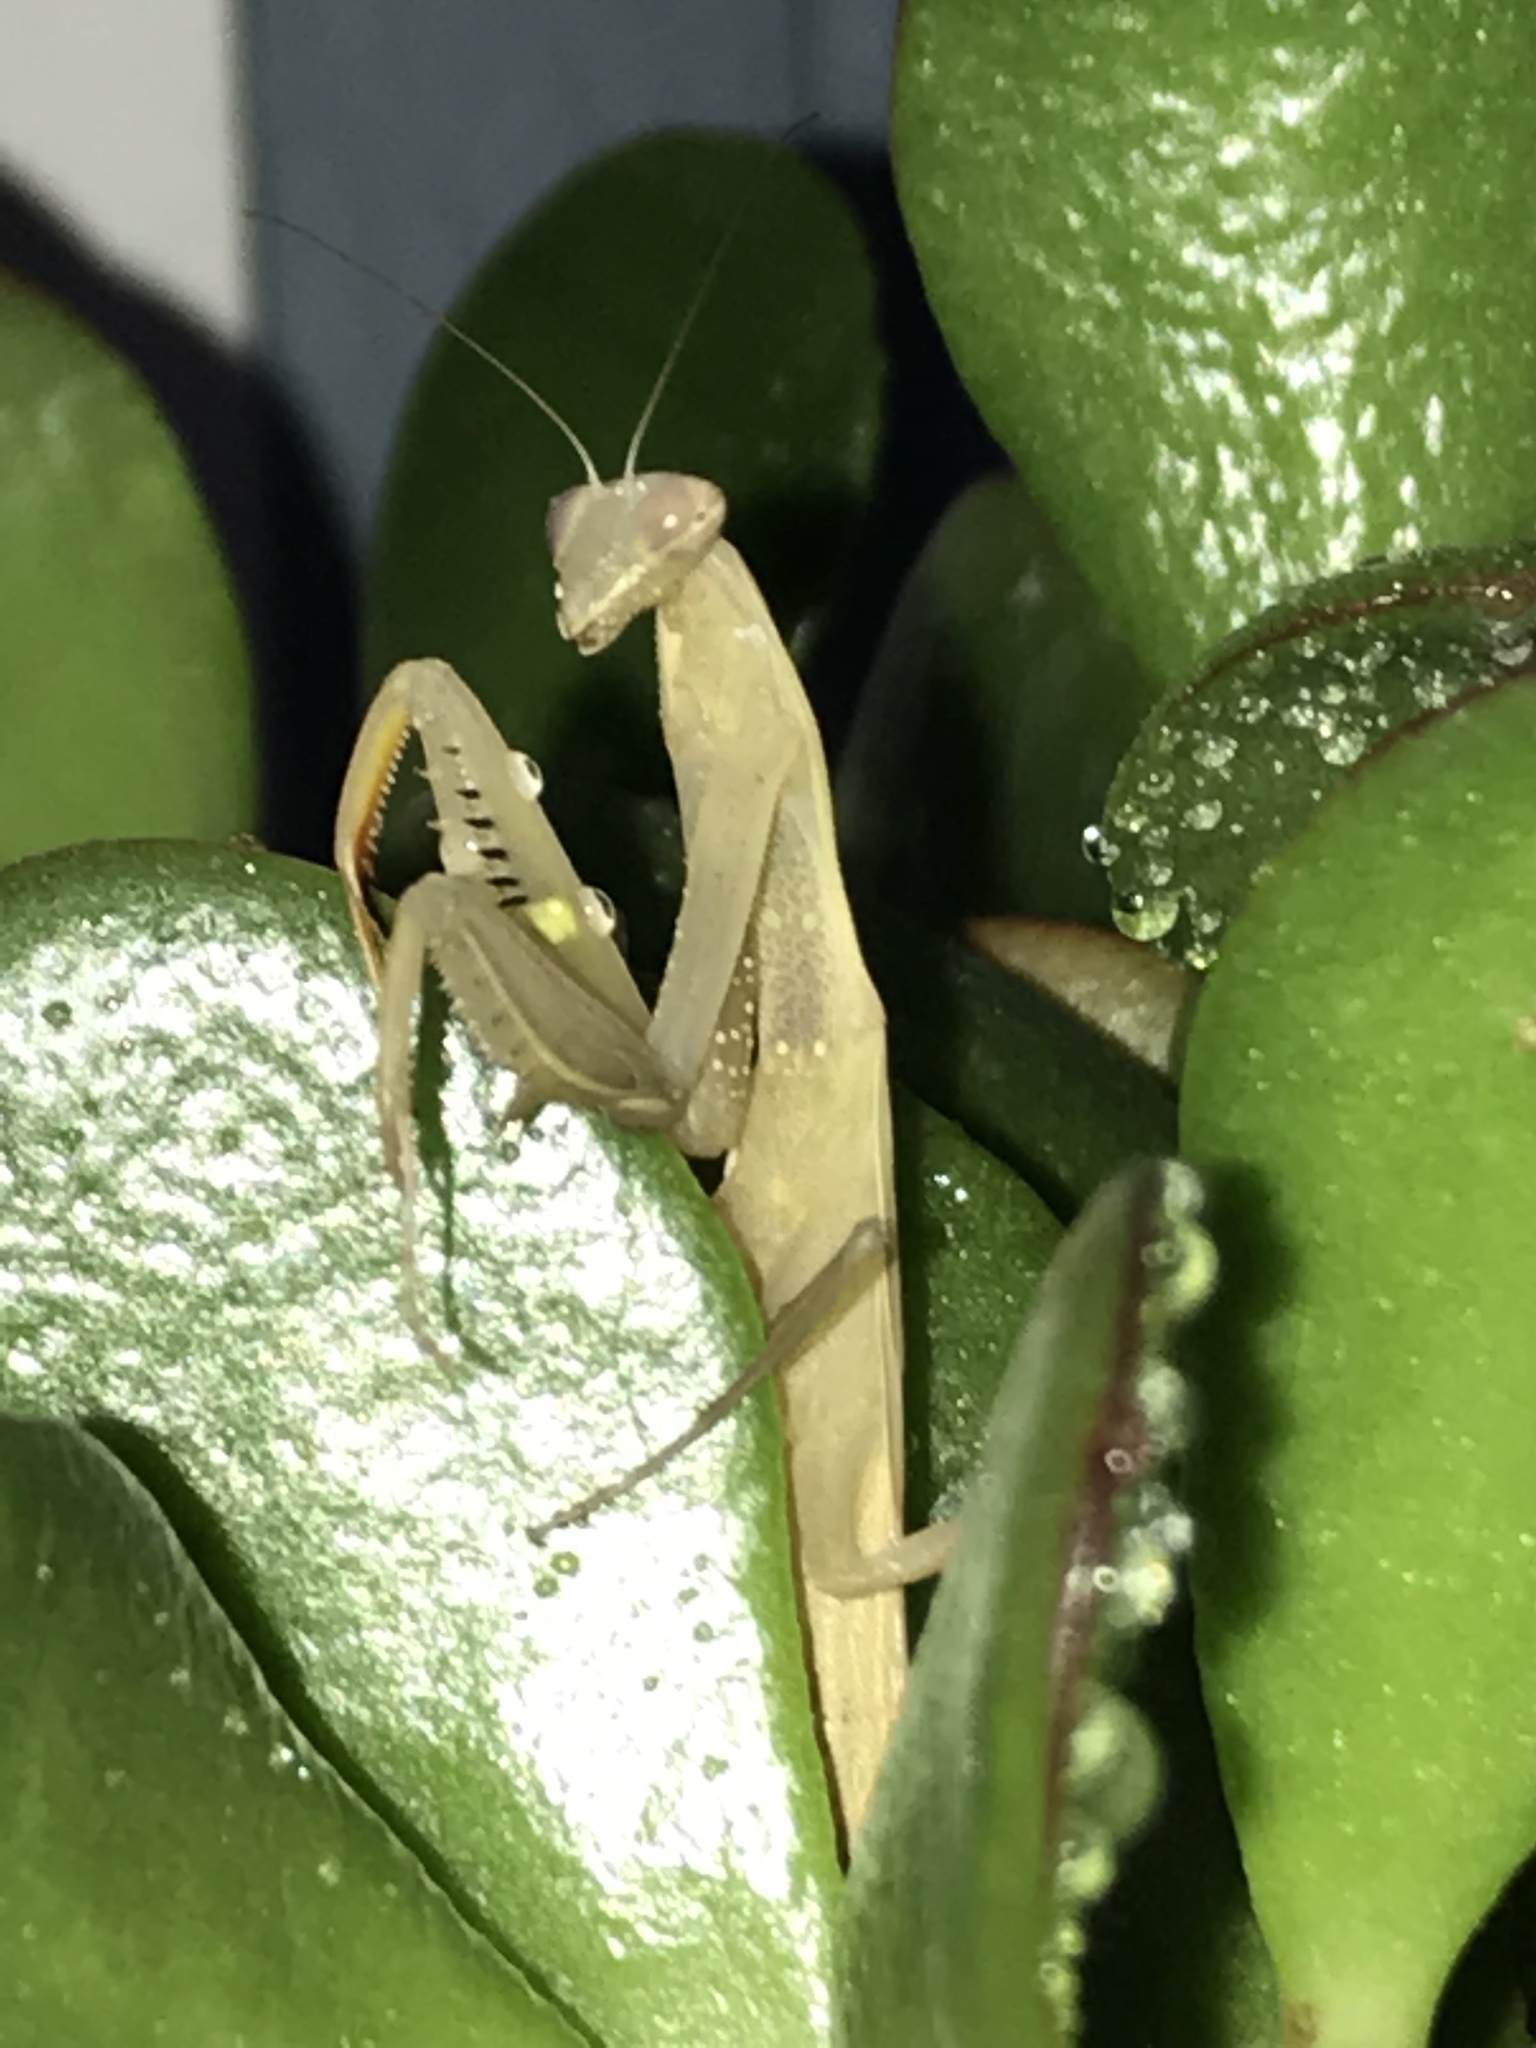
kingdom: Animalia
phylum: Arthropoda
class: Insecta
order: Mantodea
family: Mantidae
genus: Mantis
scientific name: Mantis religiosa
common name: Praying mantis
